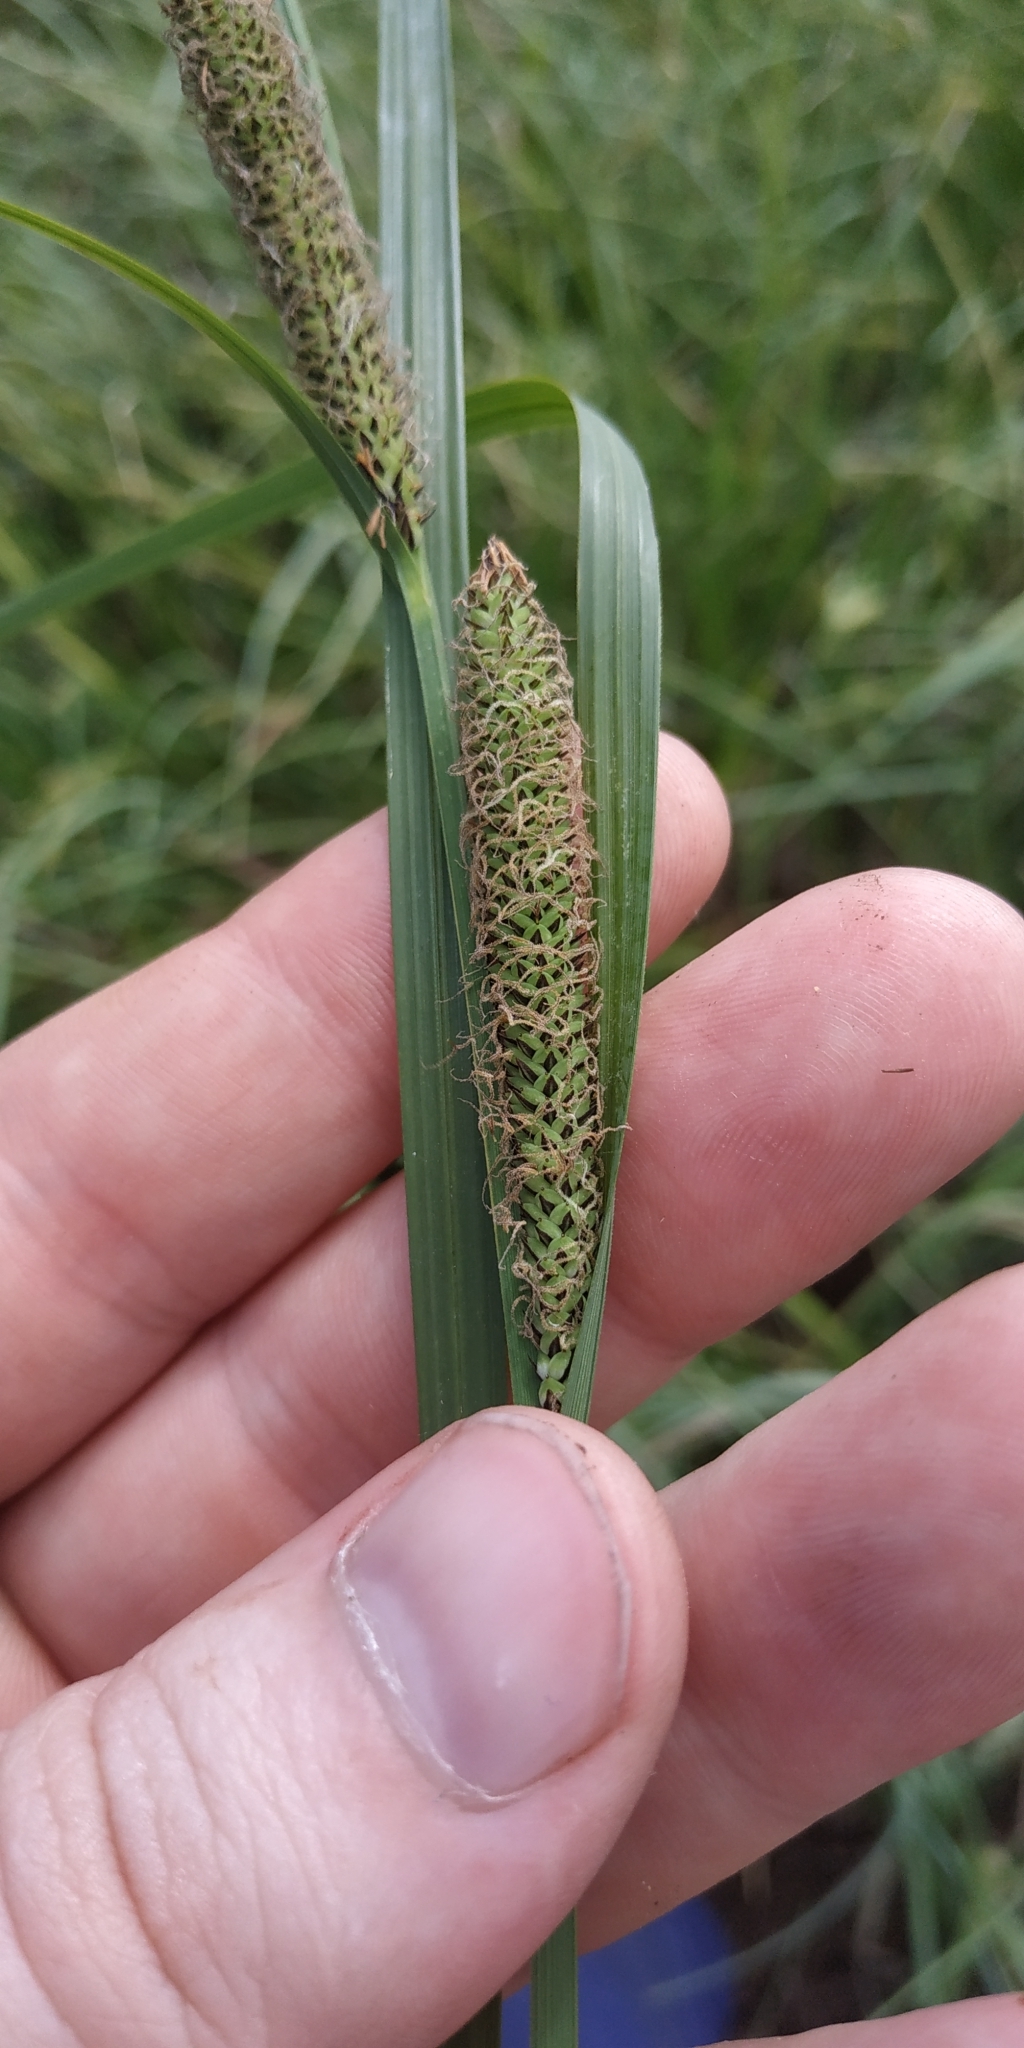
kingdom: Plantae
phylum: Tracheophyta
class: Liliopsida
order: Poales
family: Cyperaceae
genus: Carex
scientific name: Carex acuta
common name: Slender tufted-sedge
